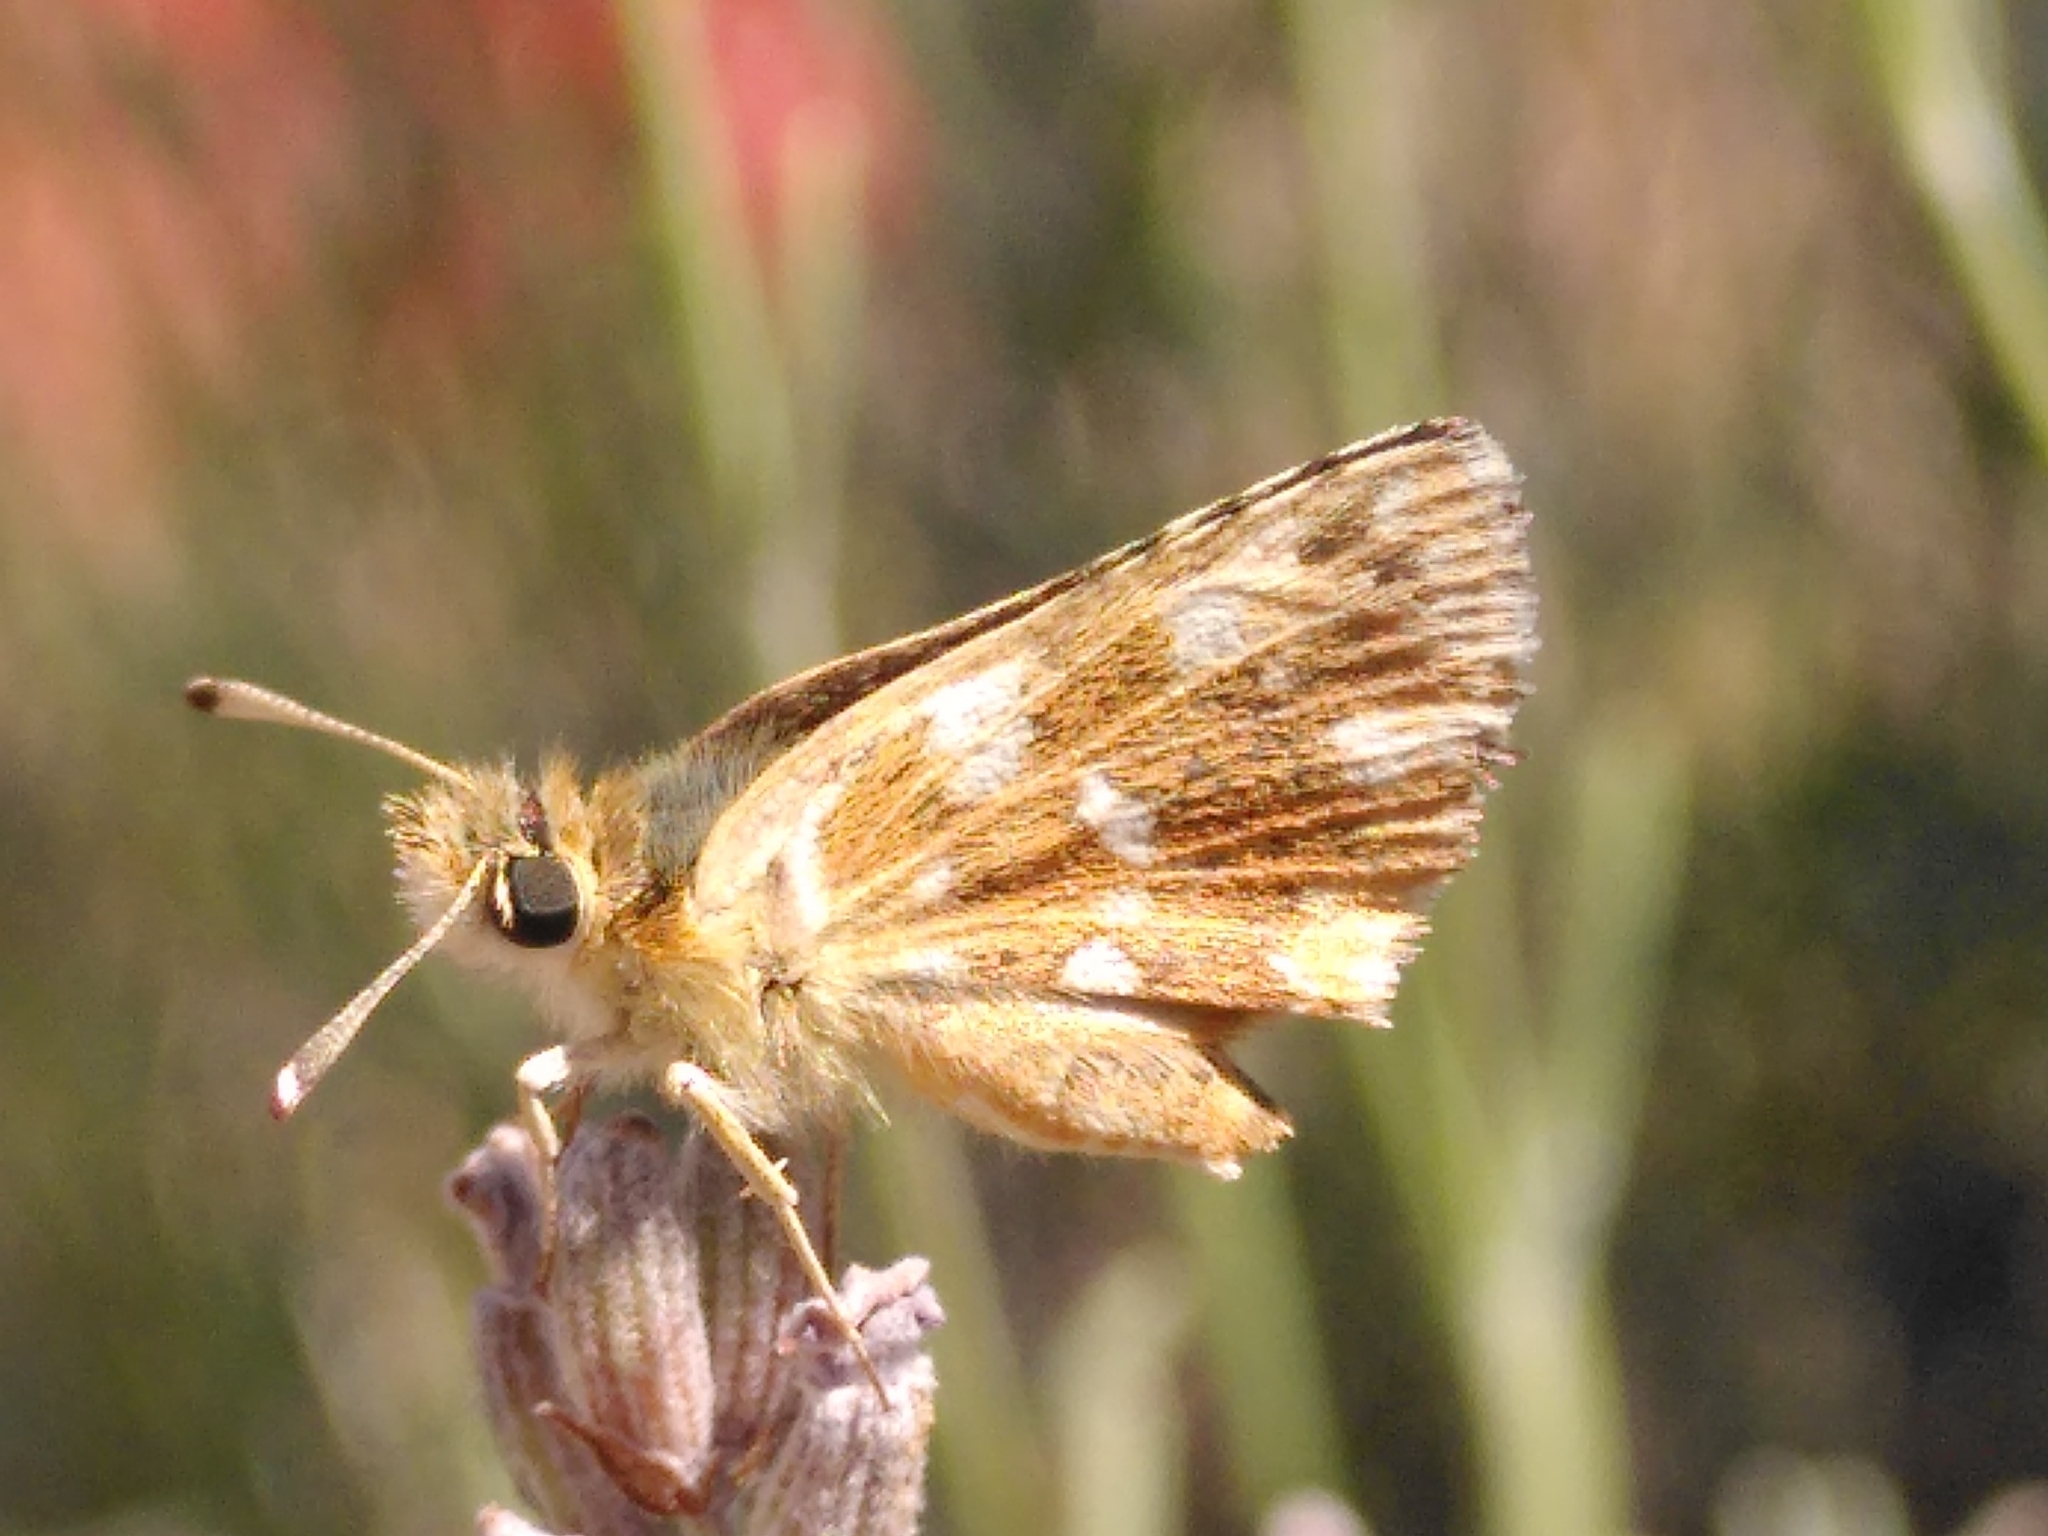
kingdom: Animalia
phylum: Arthropoda
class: Insecta
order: Lepidoptera
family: Hesperiidae
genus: Spialia
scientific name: Spialia sertorius
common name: Red underwing skipper
